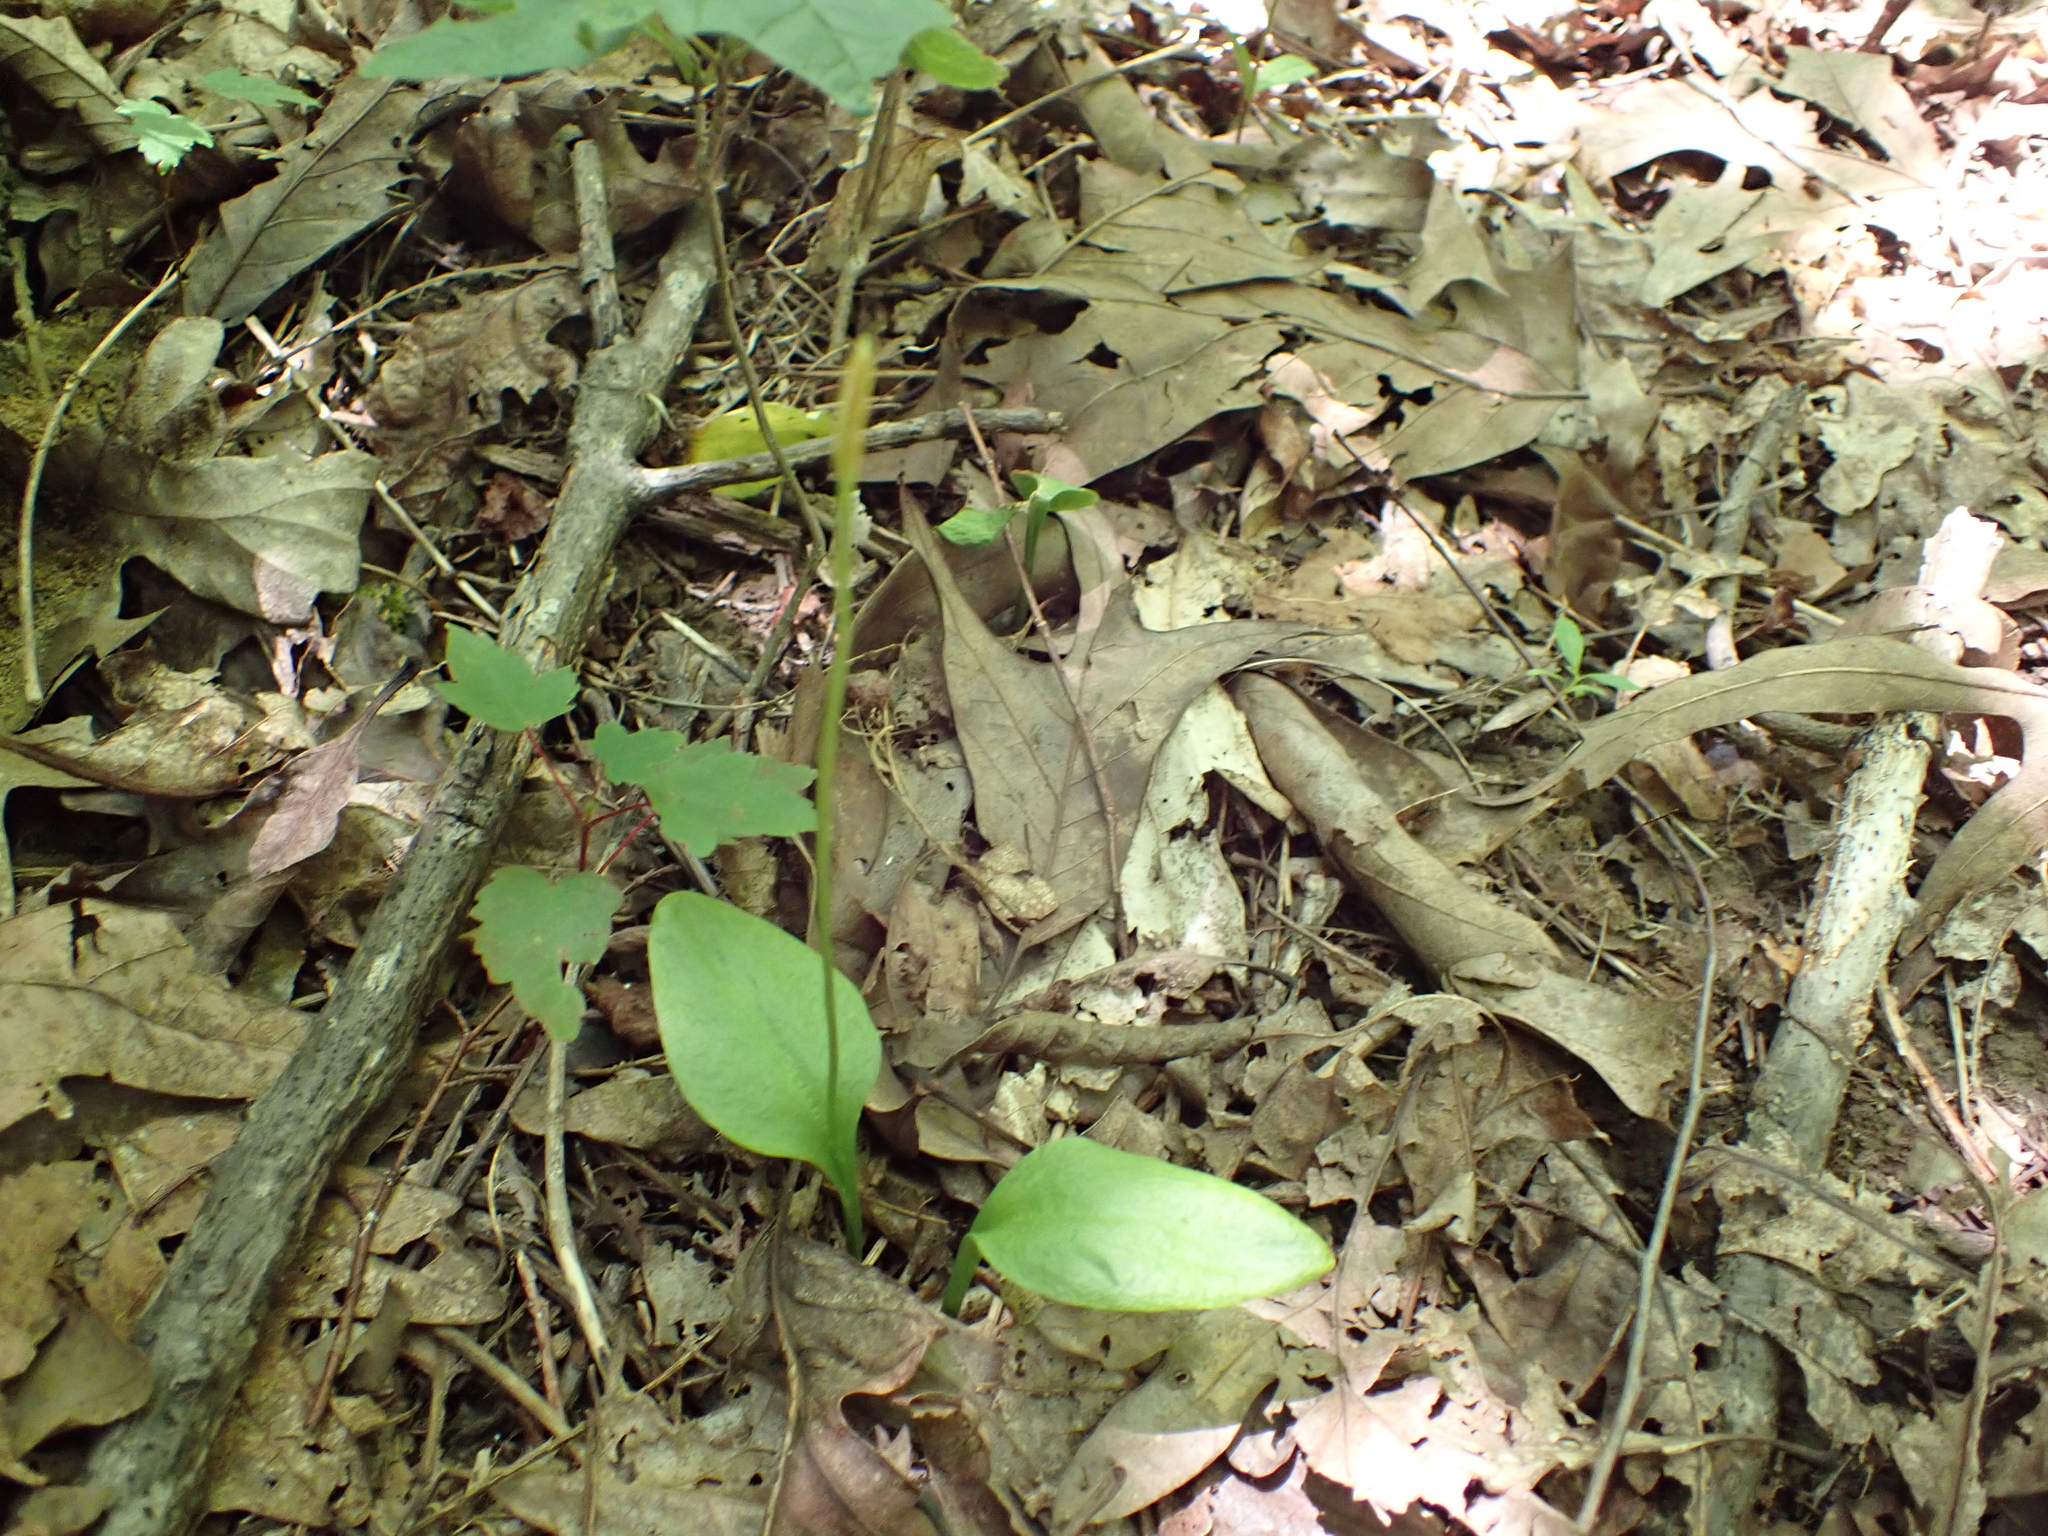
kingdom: Plantae
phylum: Tracheophyta
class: Polypodiopsida
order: Ophioglossales
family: Ophioglossaceae
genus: Ophioglossum
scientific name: Ophioglossum vulgatum
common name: Adder's-tongue
